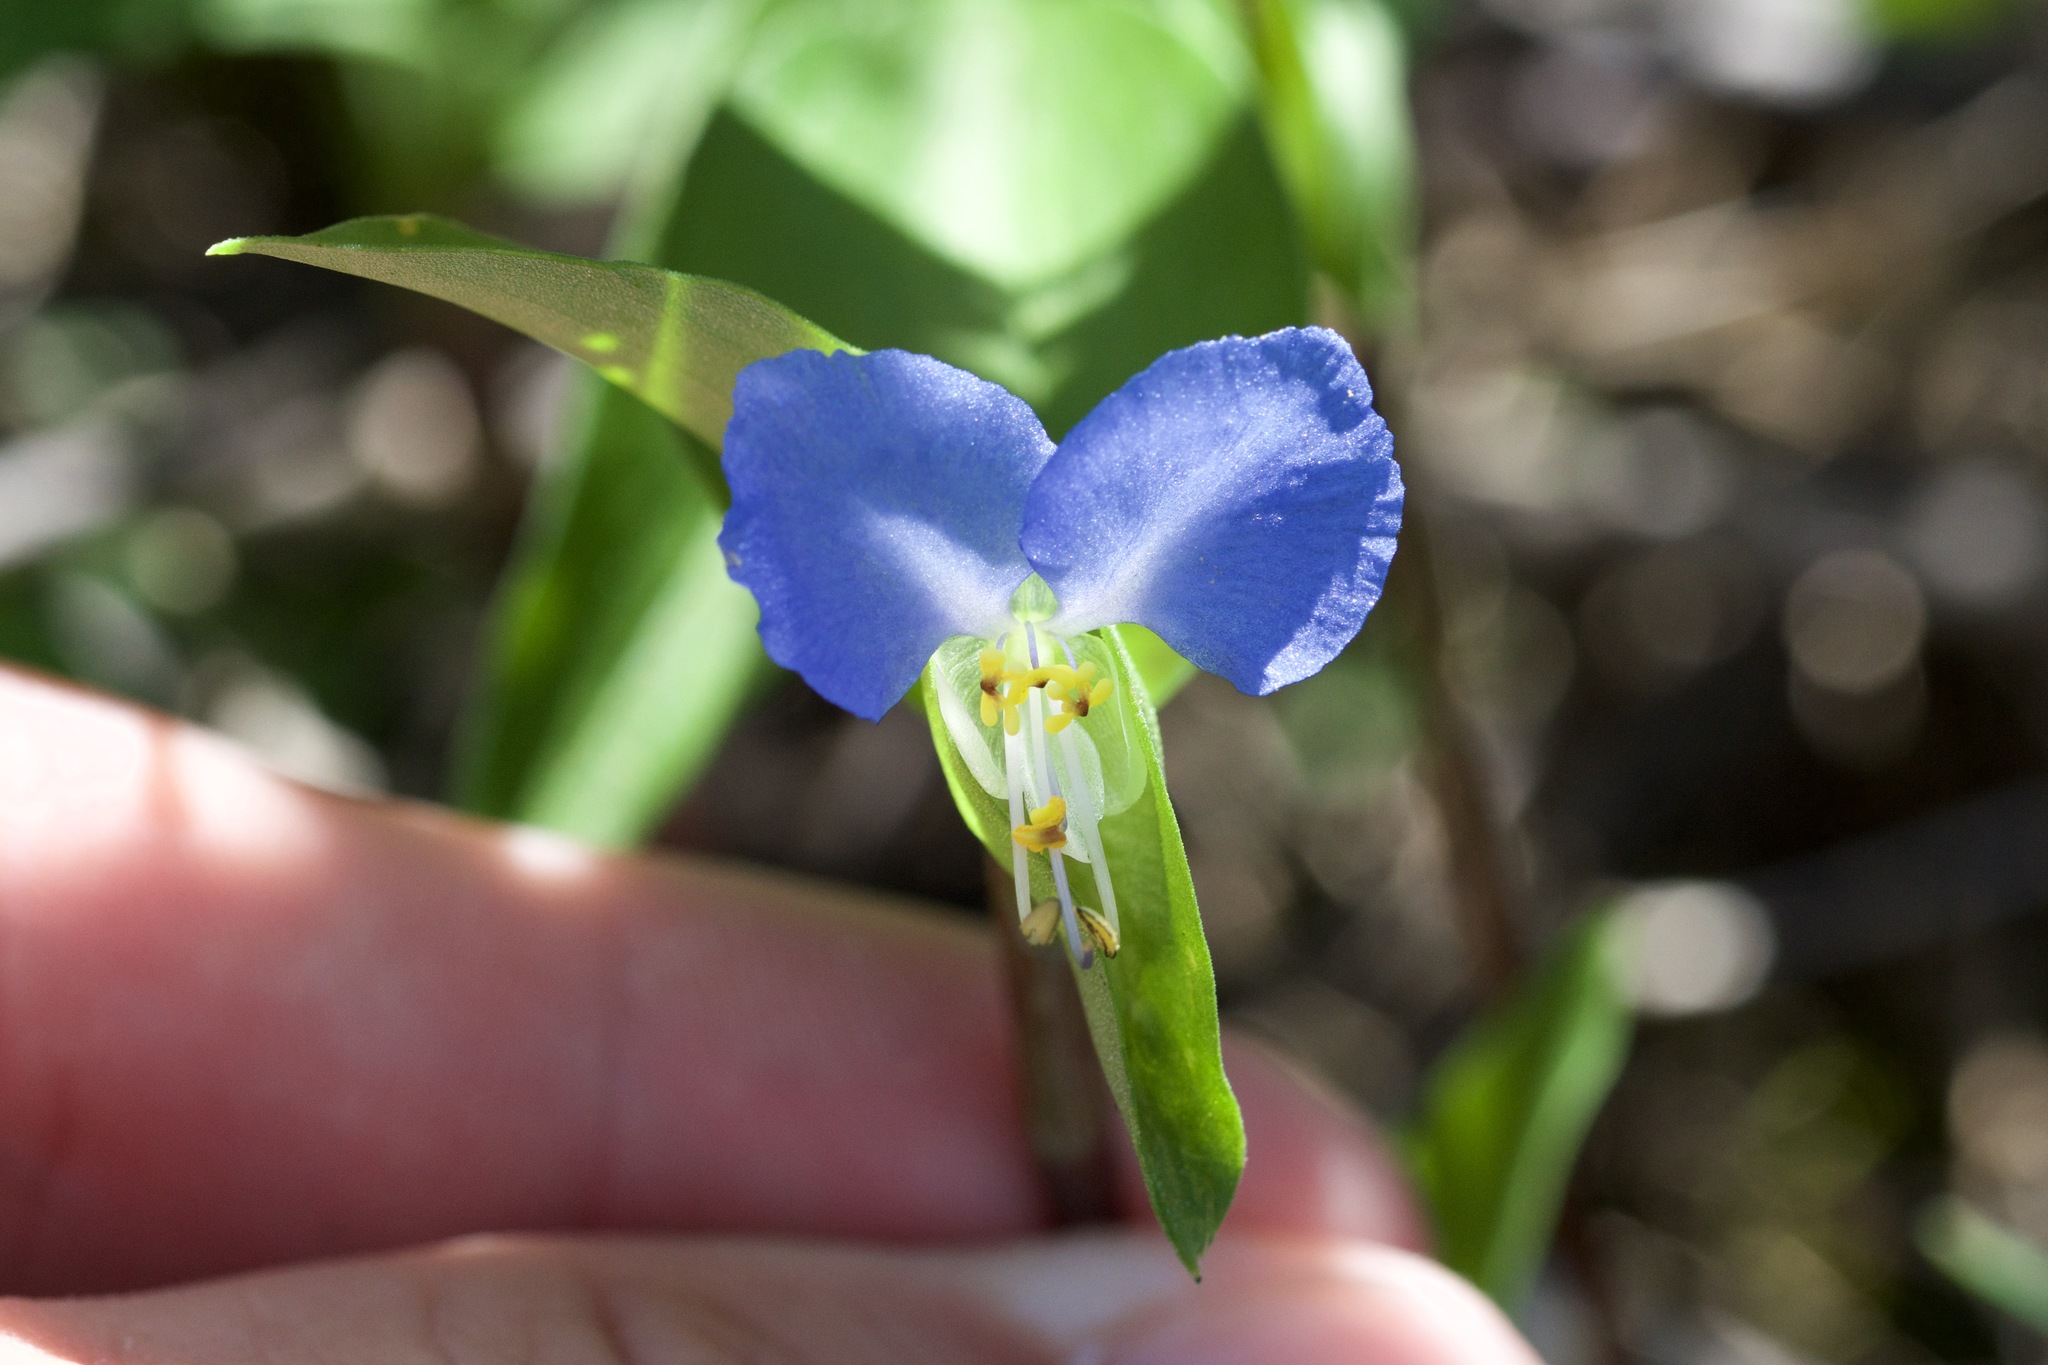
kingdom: Plantae
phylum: Tracheophyta
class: Liliopsida
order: Commelinales
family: Commelinaceae
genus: Commelina
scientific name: Commelina communis
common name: Asiatic dayflower
